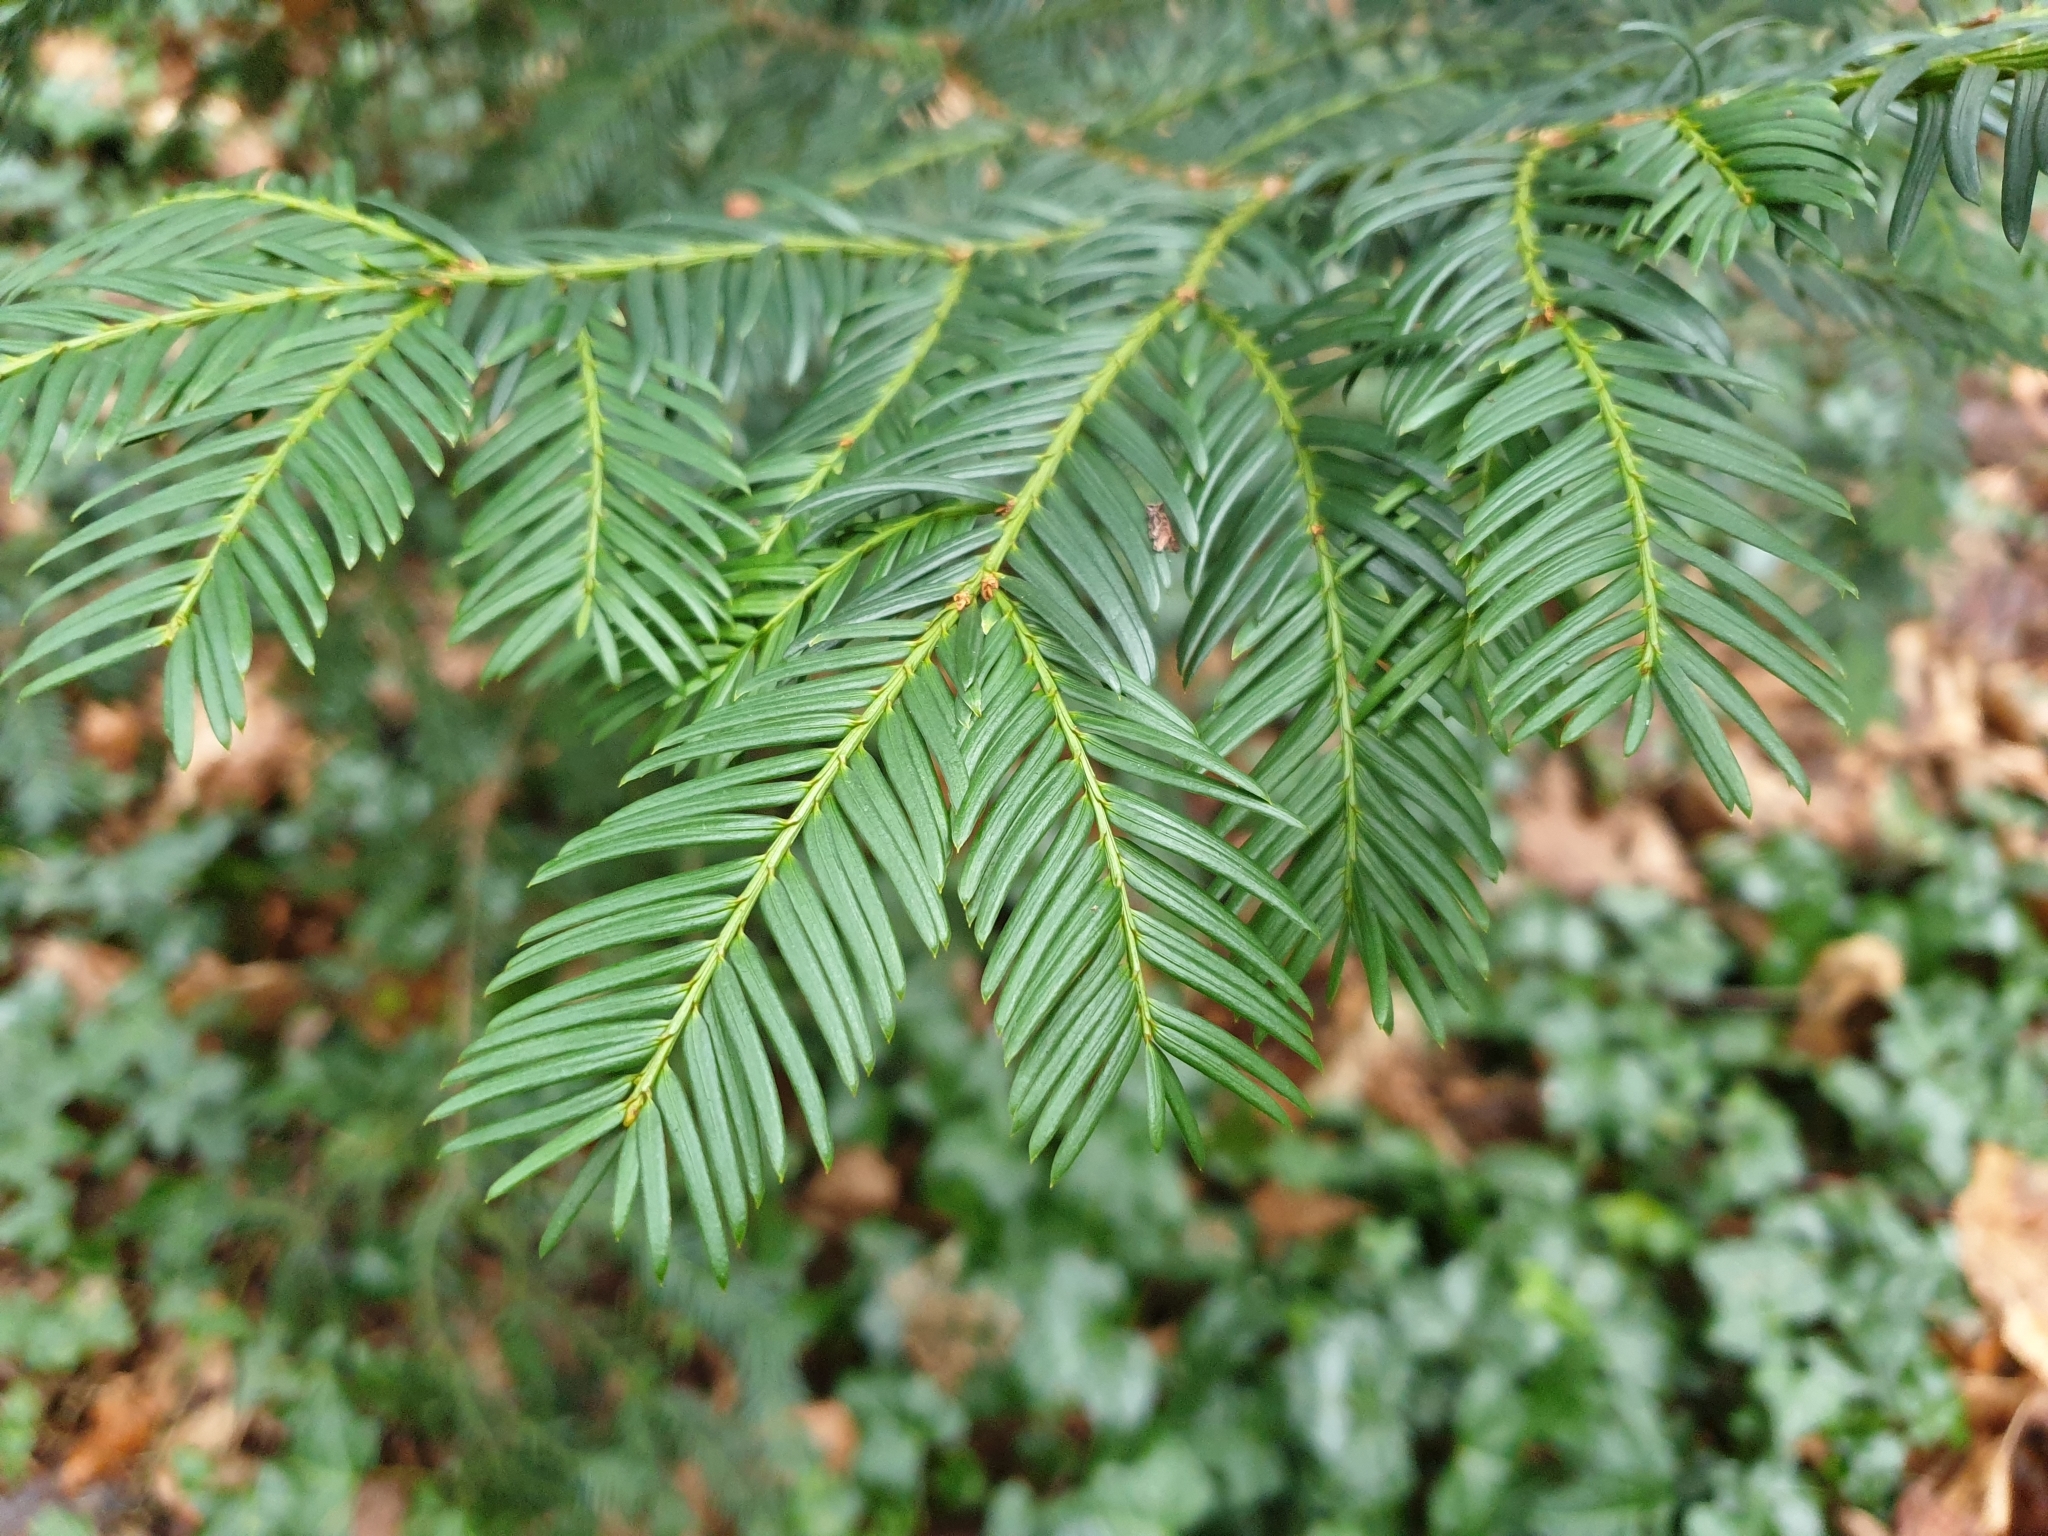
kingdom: Plantae
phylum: Tracheophyta
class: Pinopsida
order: Pinales
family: Taxaceae
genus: Taxus
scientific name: Taxus baccata
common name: Yew
